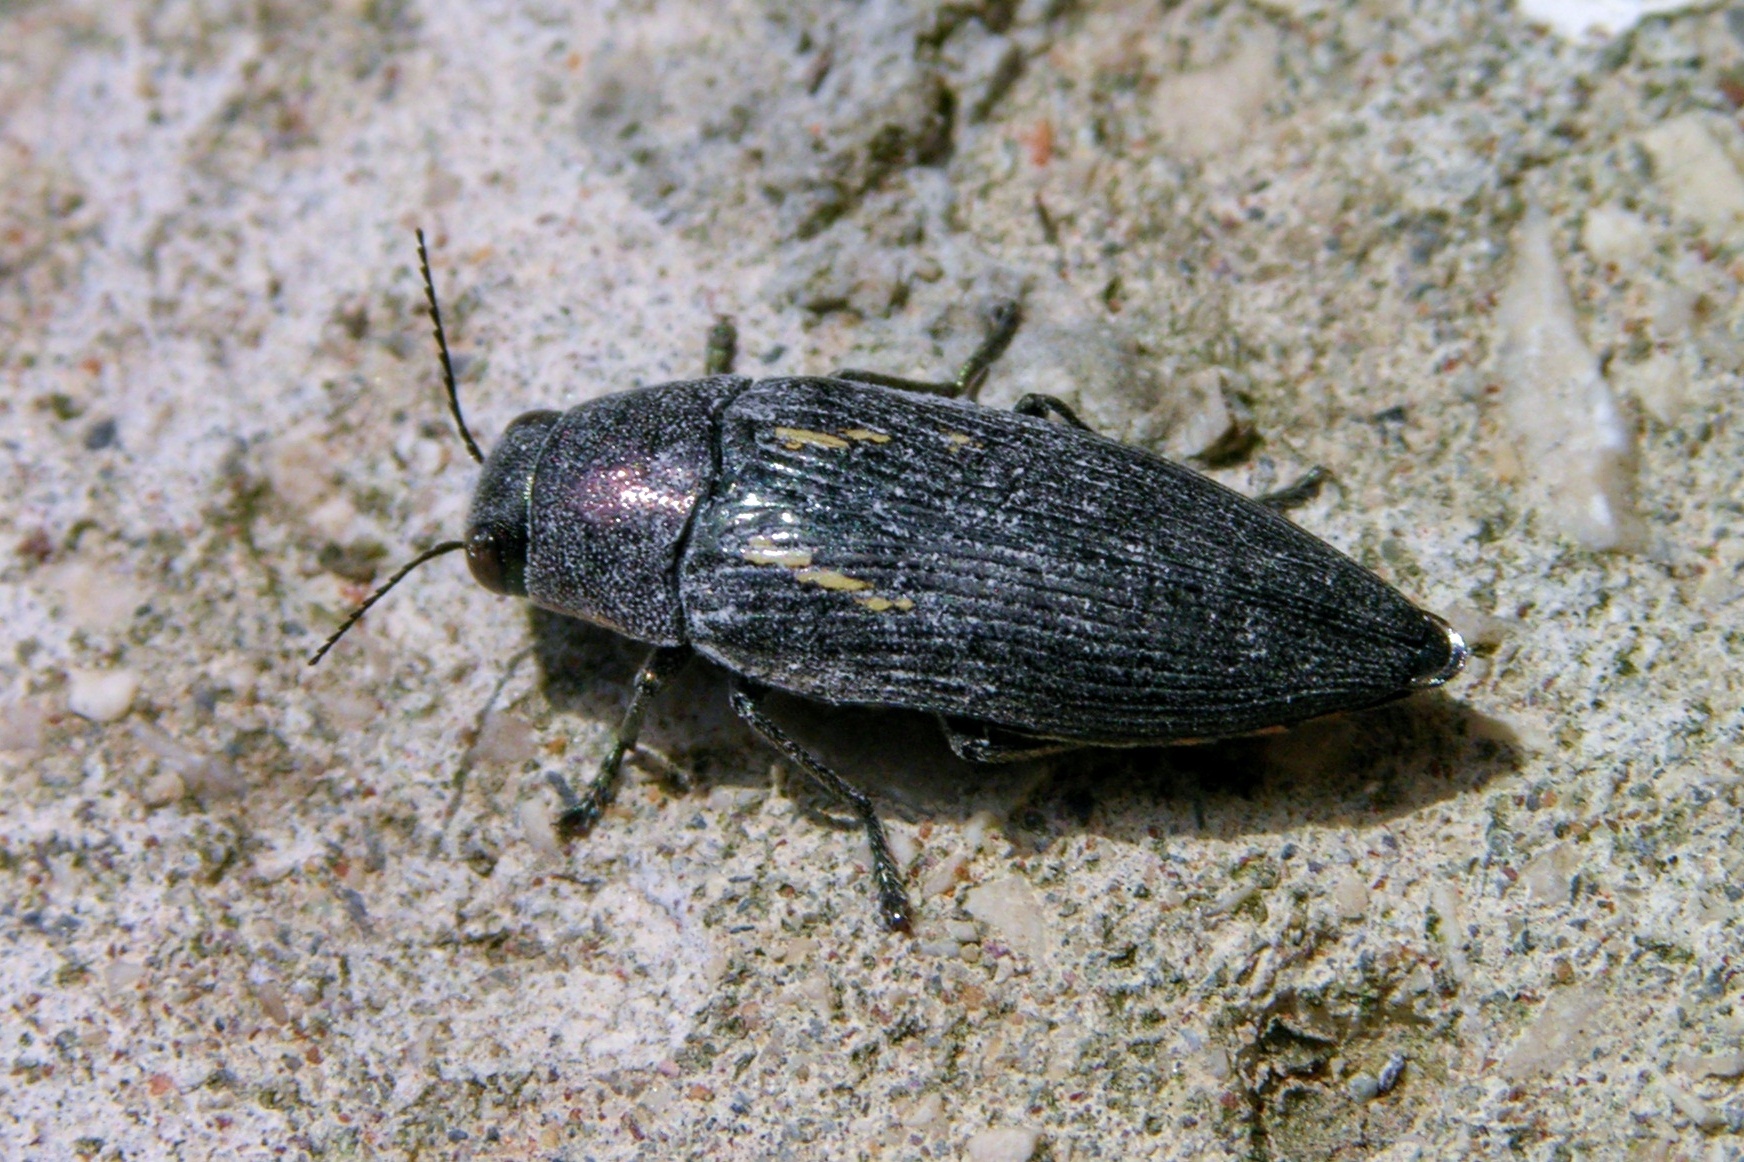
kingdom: Animalia
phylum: Arthropoda
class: Insecta
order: Coleoptera
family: Buprestidae
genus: Buprestis
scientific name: Buprestis dalmatina
